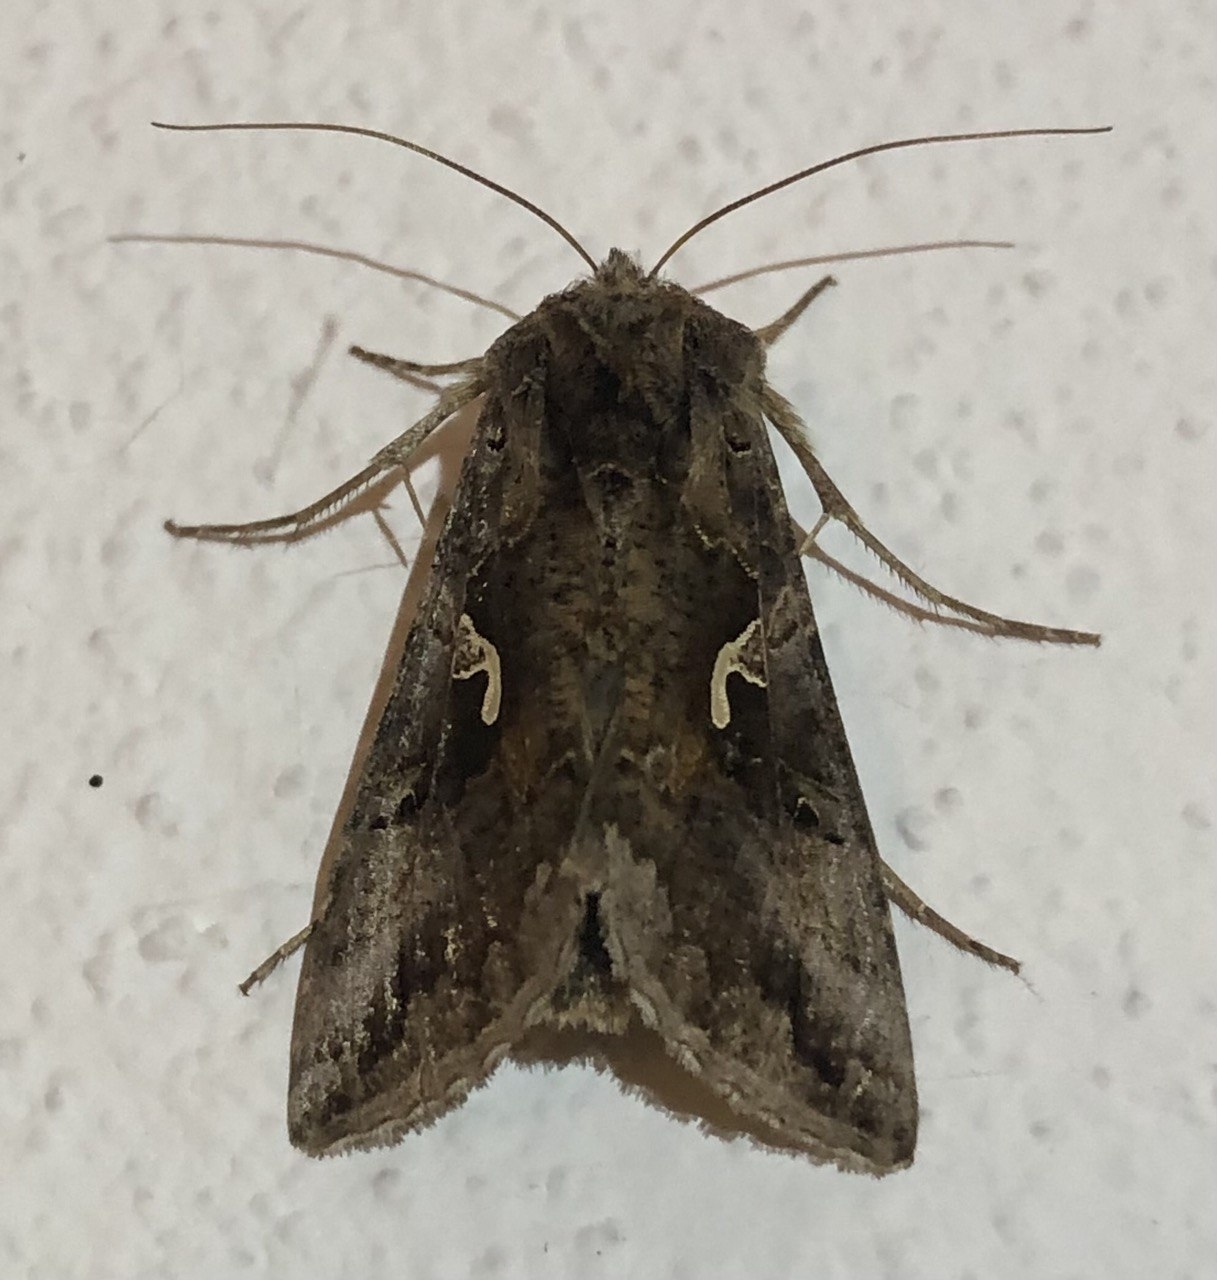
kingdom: Animalia
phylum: Arthropoda
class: Insecta
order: Lepidoptera
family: Noctuidae
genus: Autographa
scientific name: Autographa gamma
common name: Silver y
